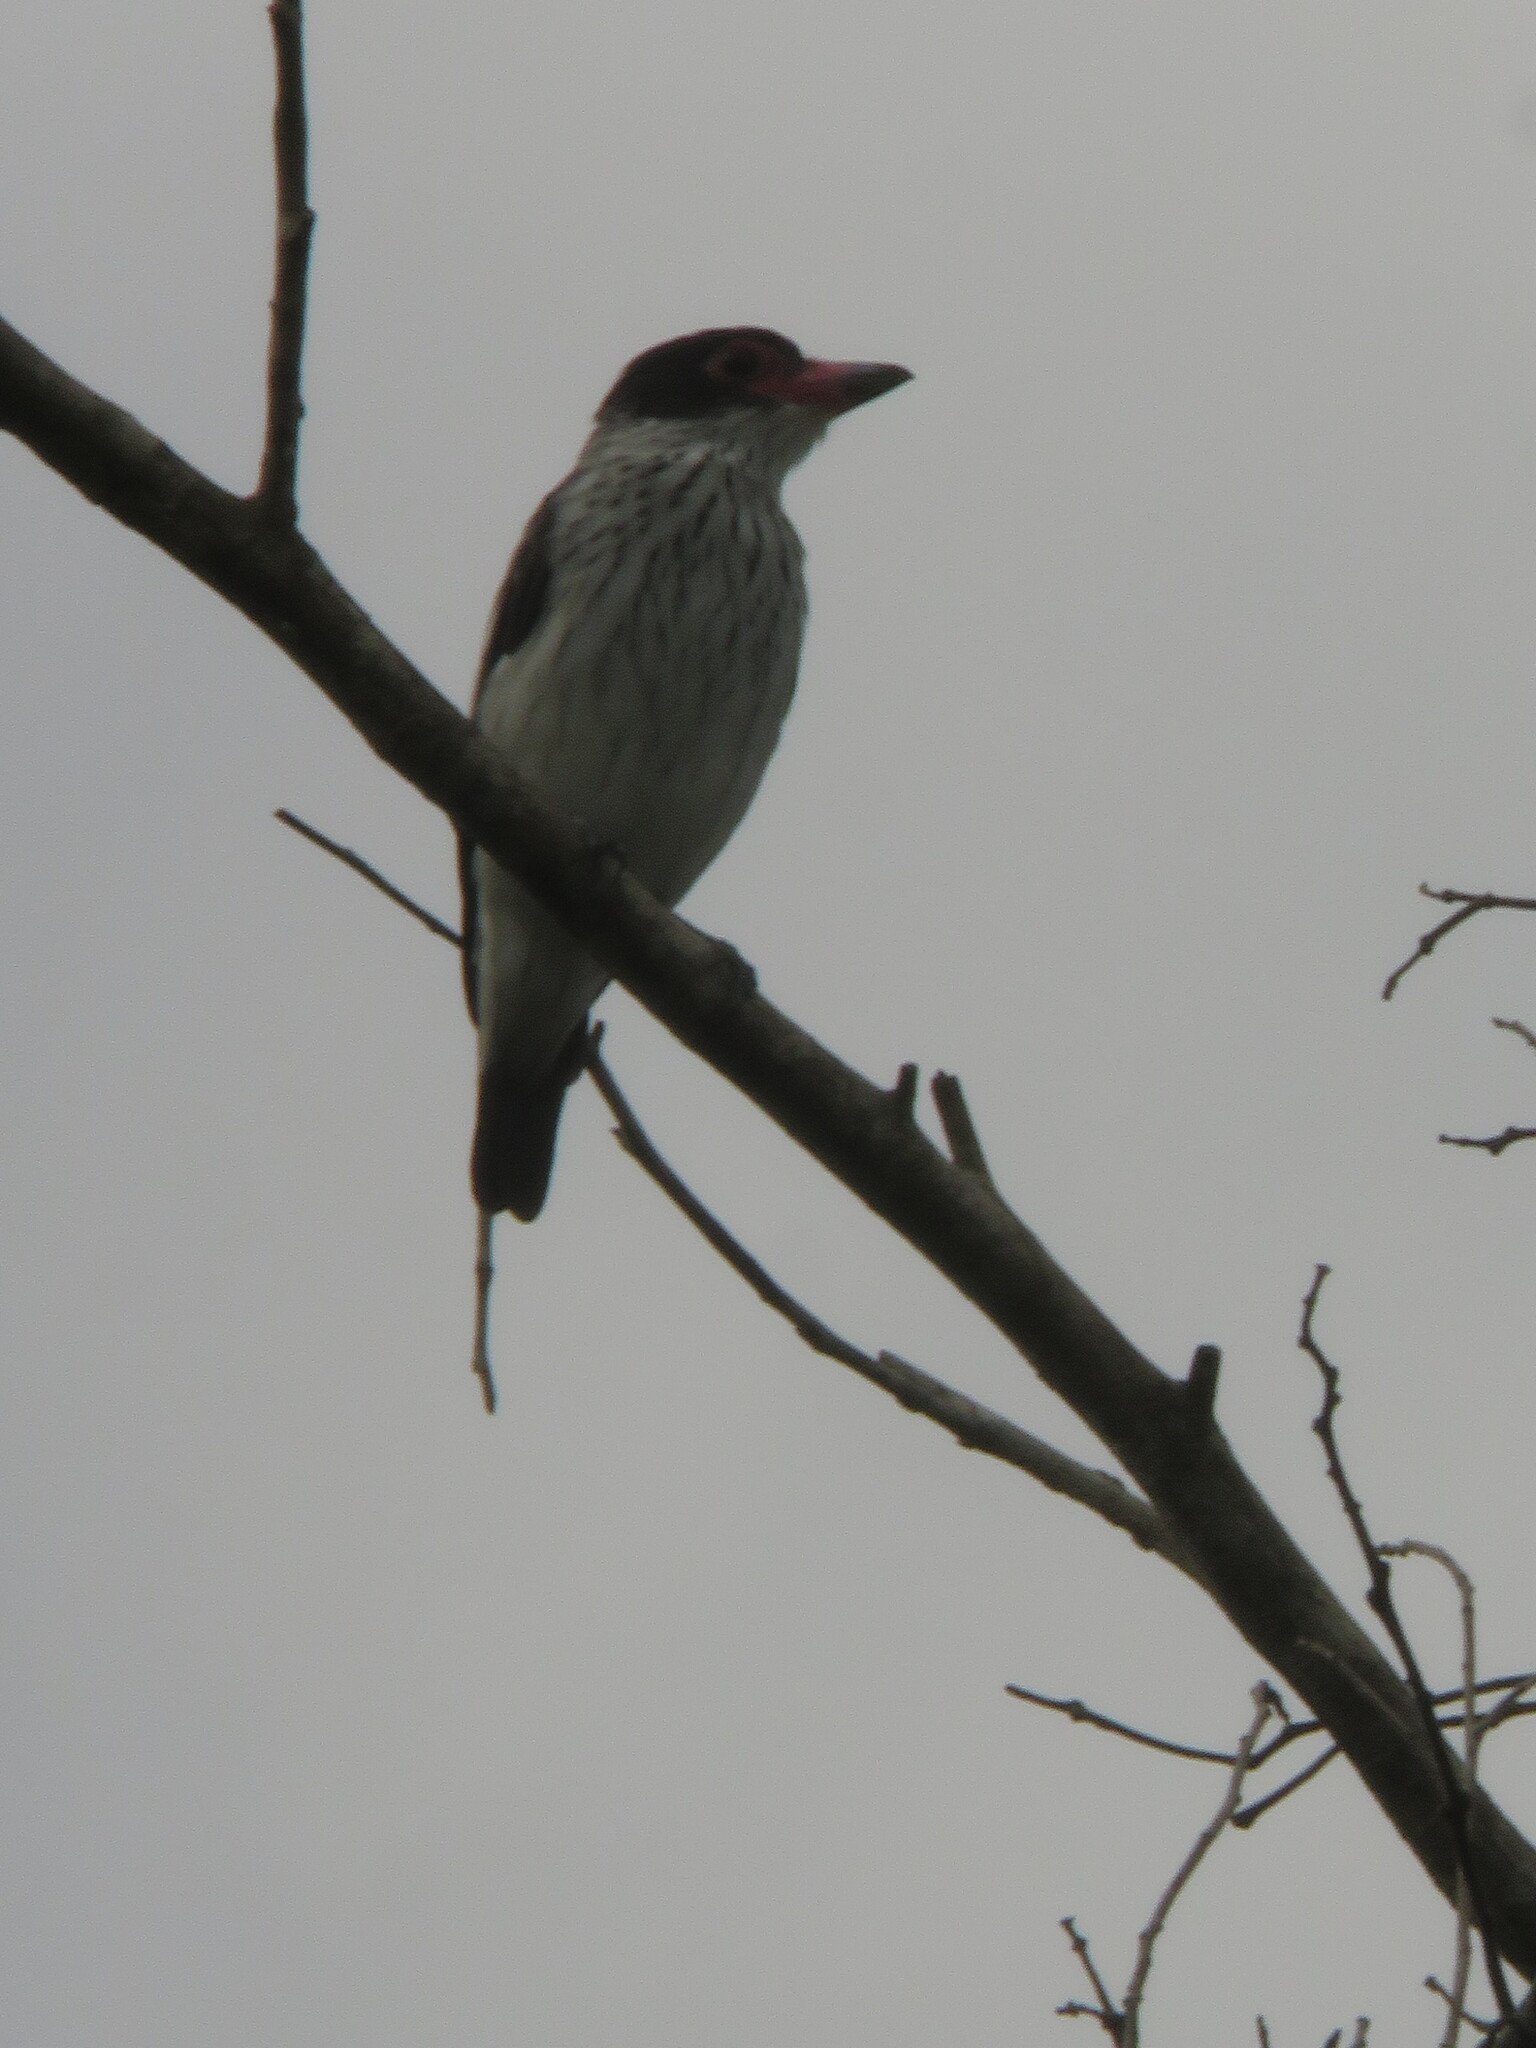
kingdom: Animalia
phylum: Chordata
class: Aves
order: Passeriformes
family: Cotingidae
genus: Tityra
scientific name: Tityra cayana
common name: Black-tailed tityra
